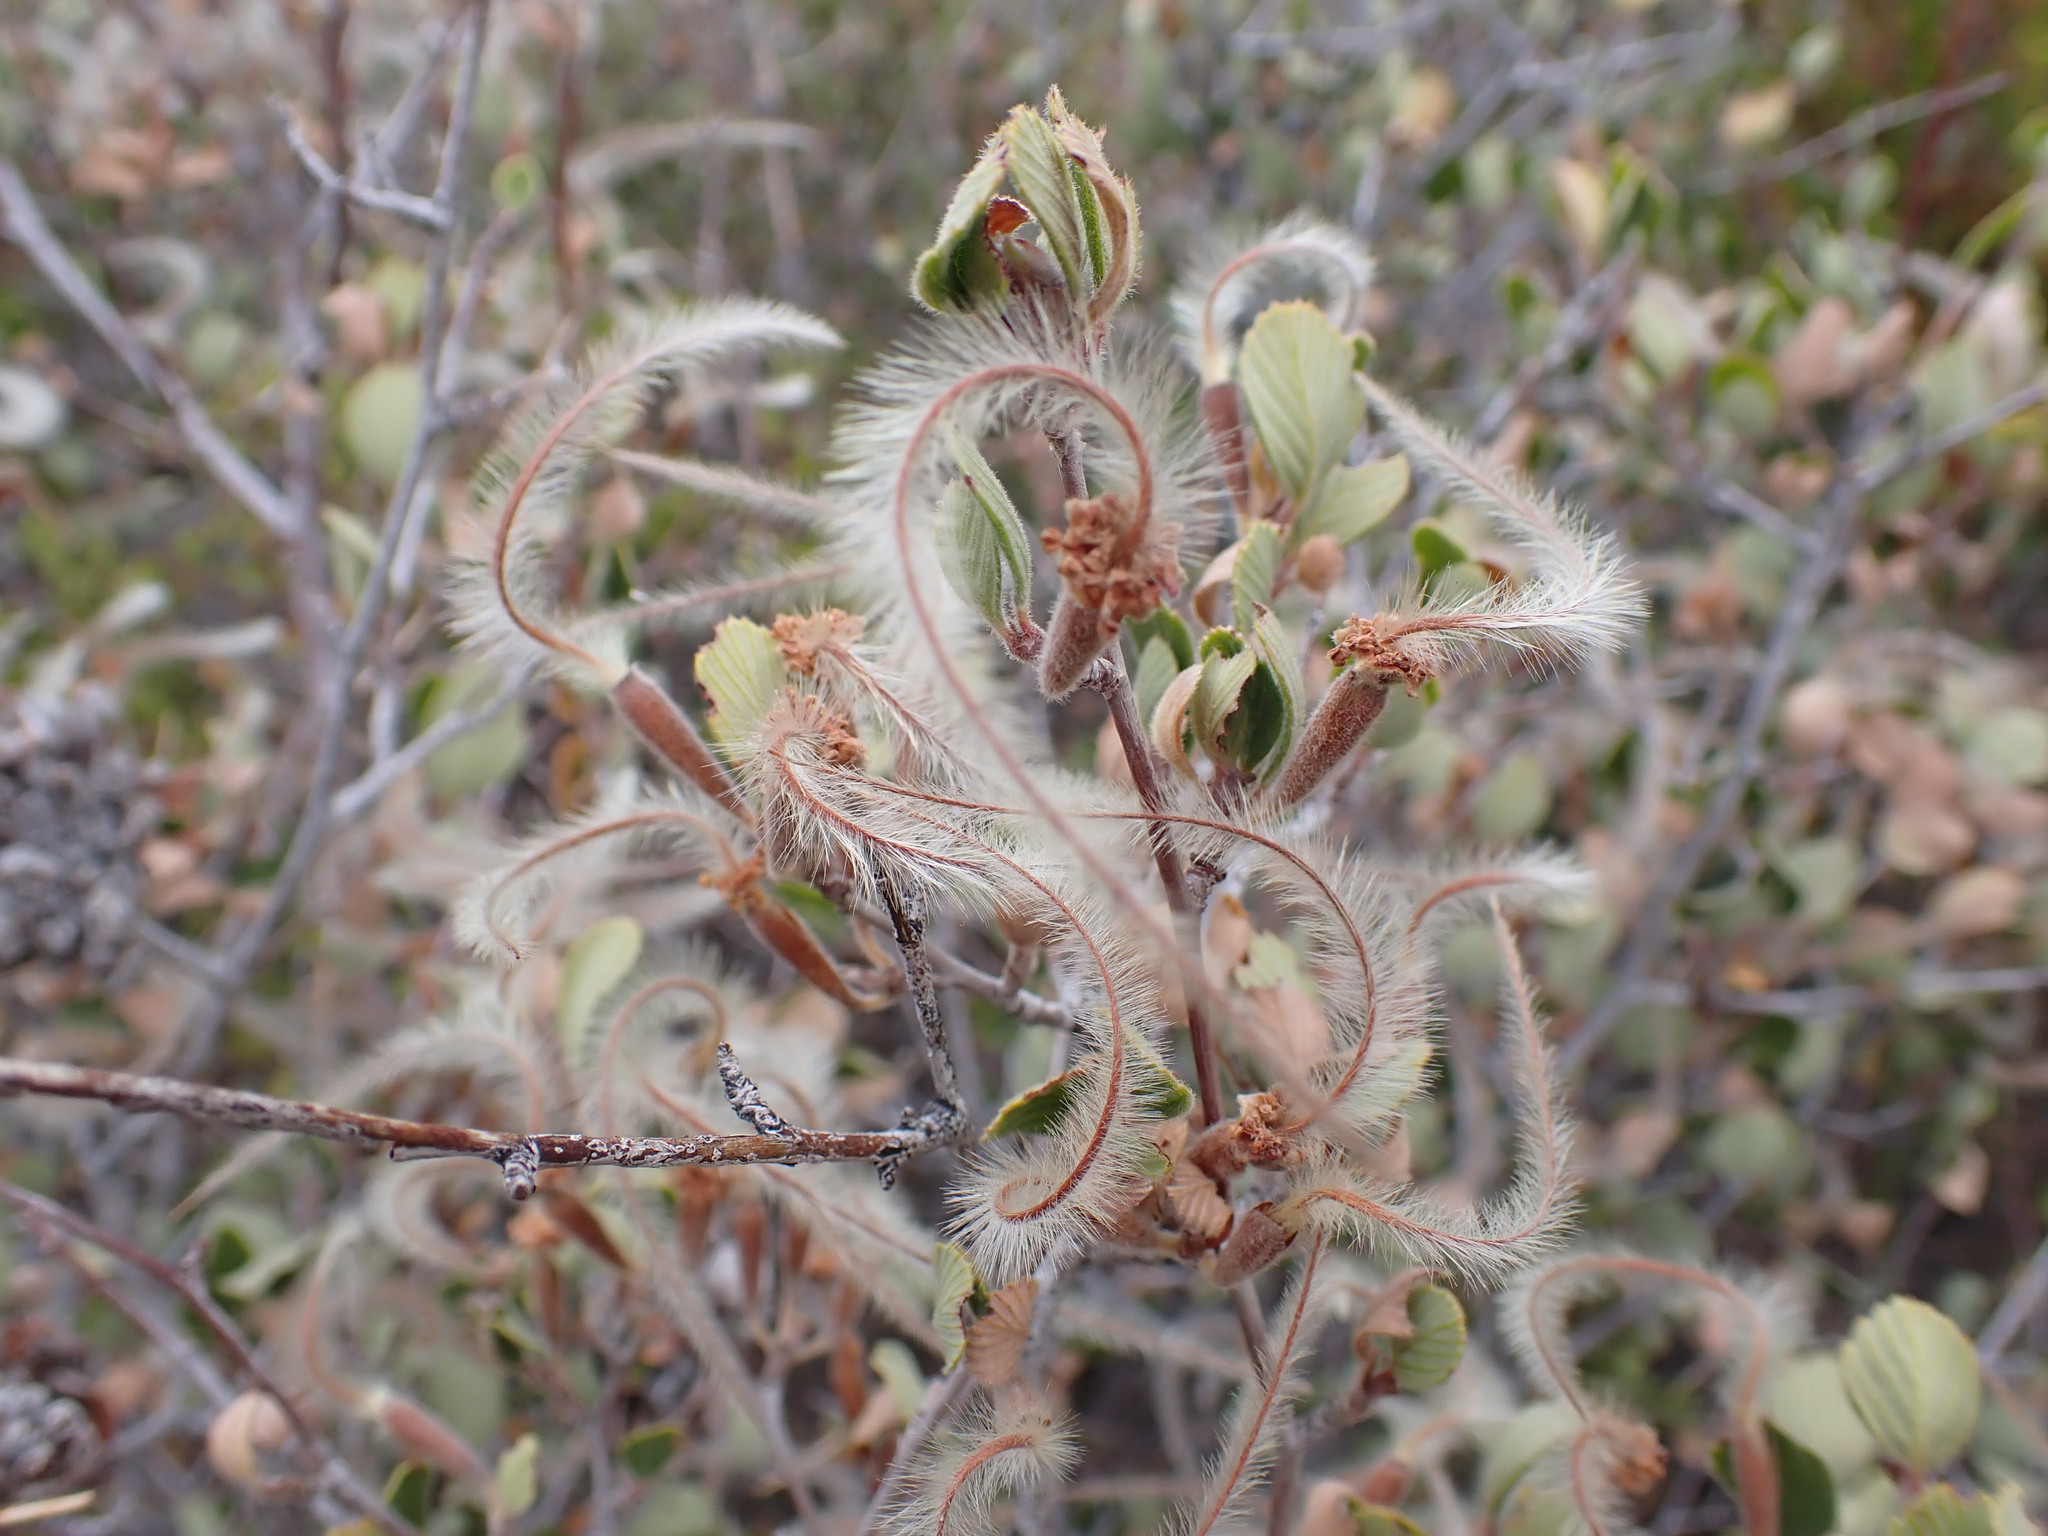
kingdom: Plantae
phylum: Tracheophyta
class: Magnoliopsida
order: Rosales
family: Rosaceae
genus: Cercocarpus
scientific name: Cercocarpus betuloides
